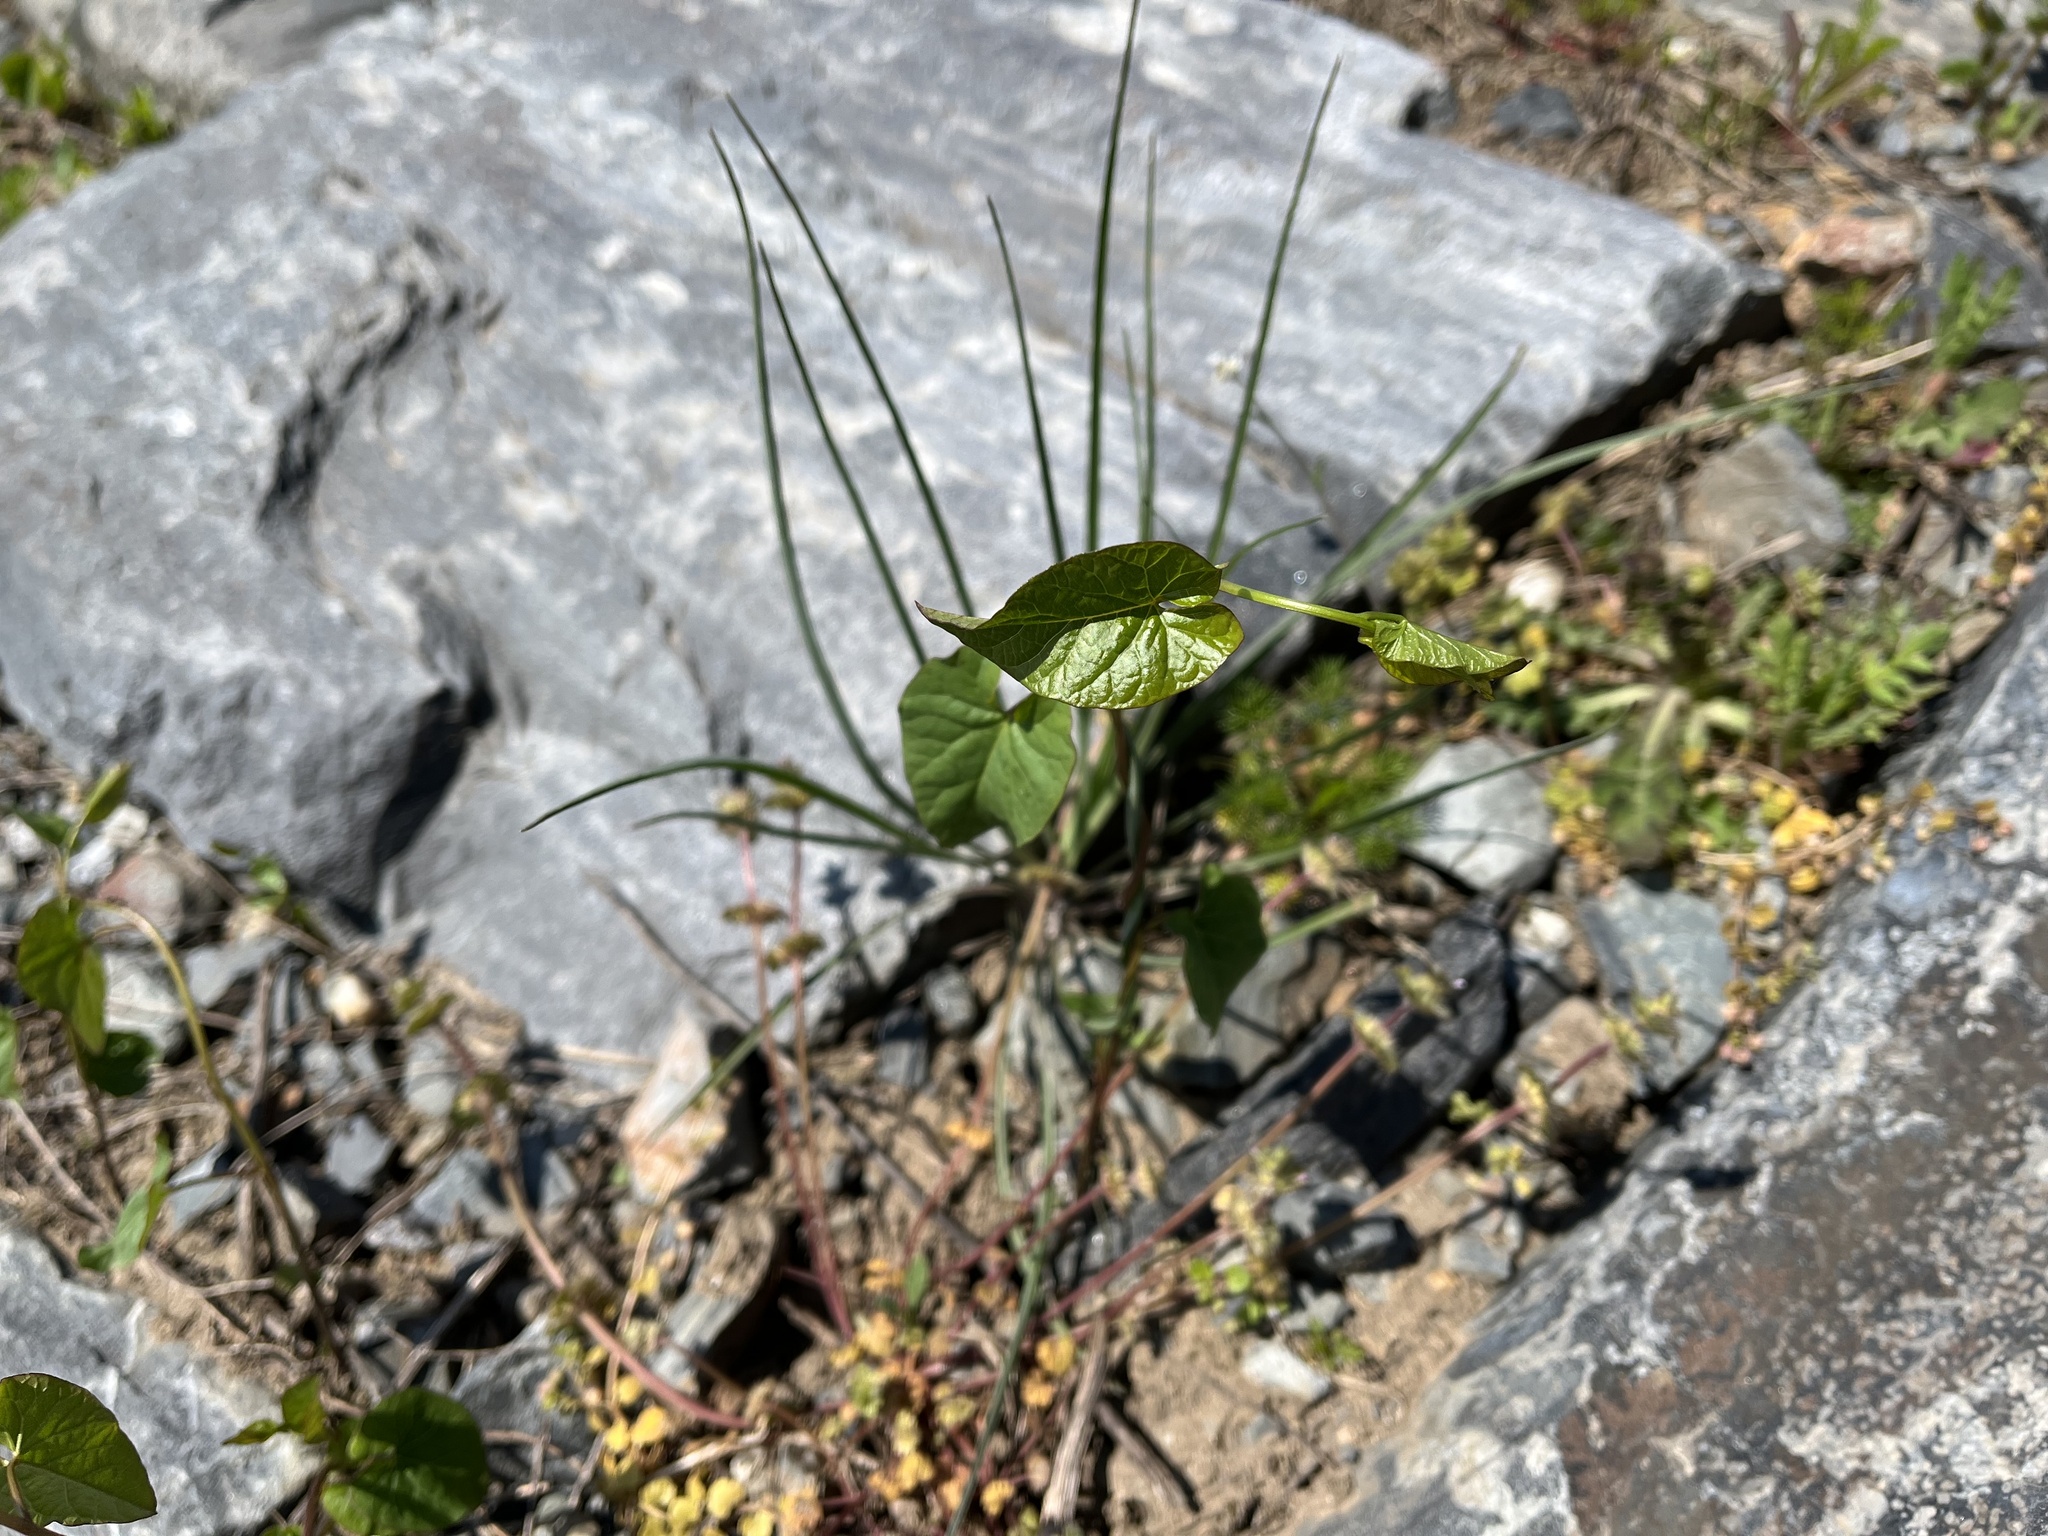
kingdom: Plantae
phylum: Tracheophyta
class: Magnoliopsida
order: Solanales
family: Convolvulaceae
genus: Calystegia
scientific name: Calystegia
